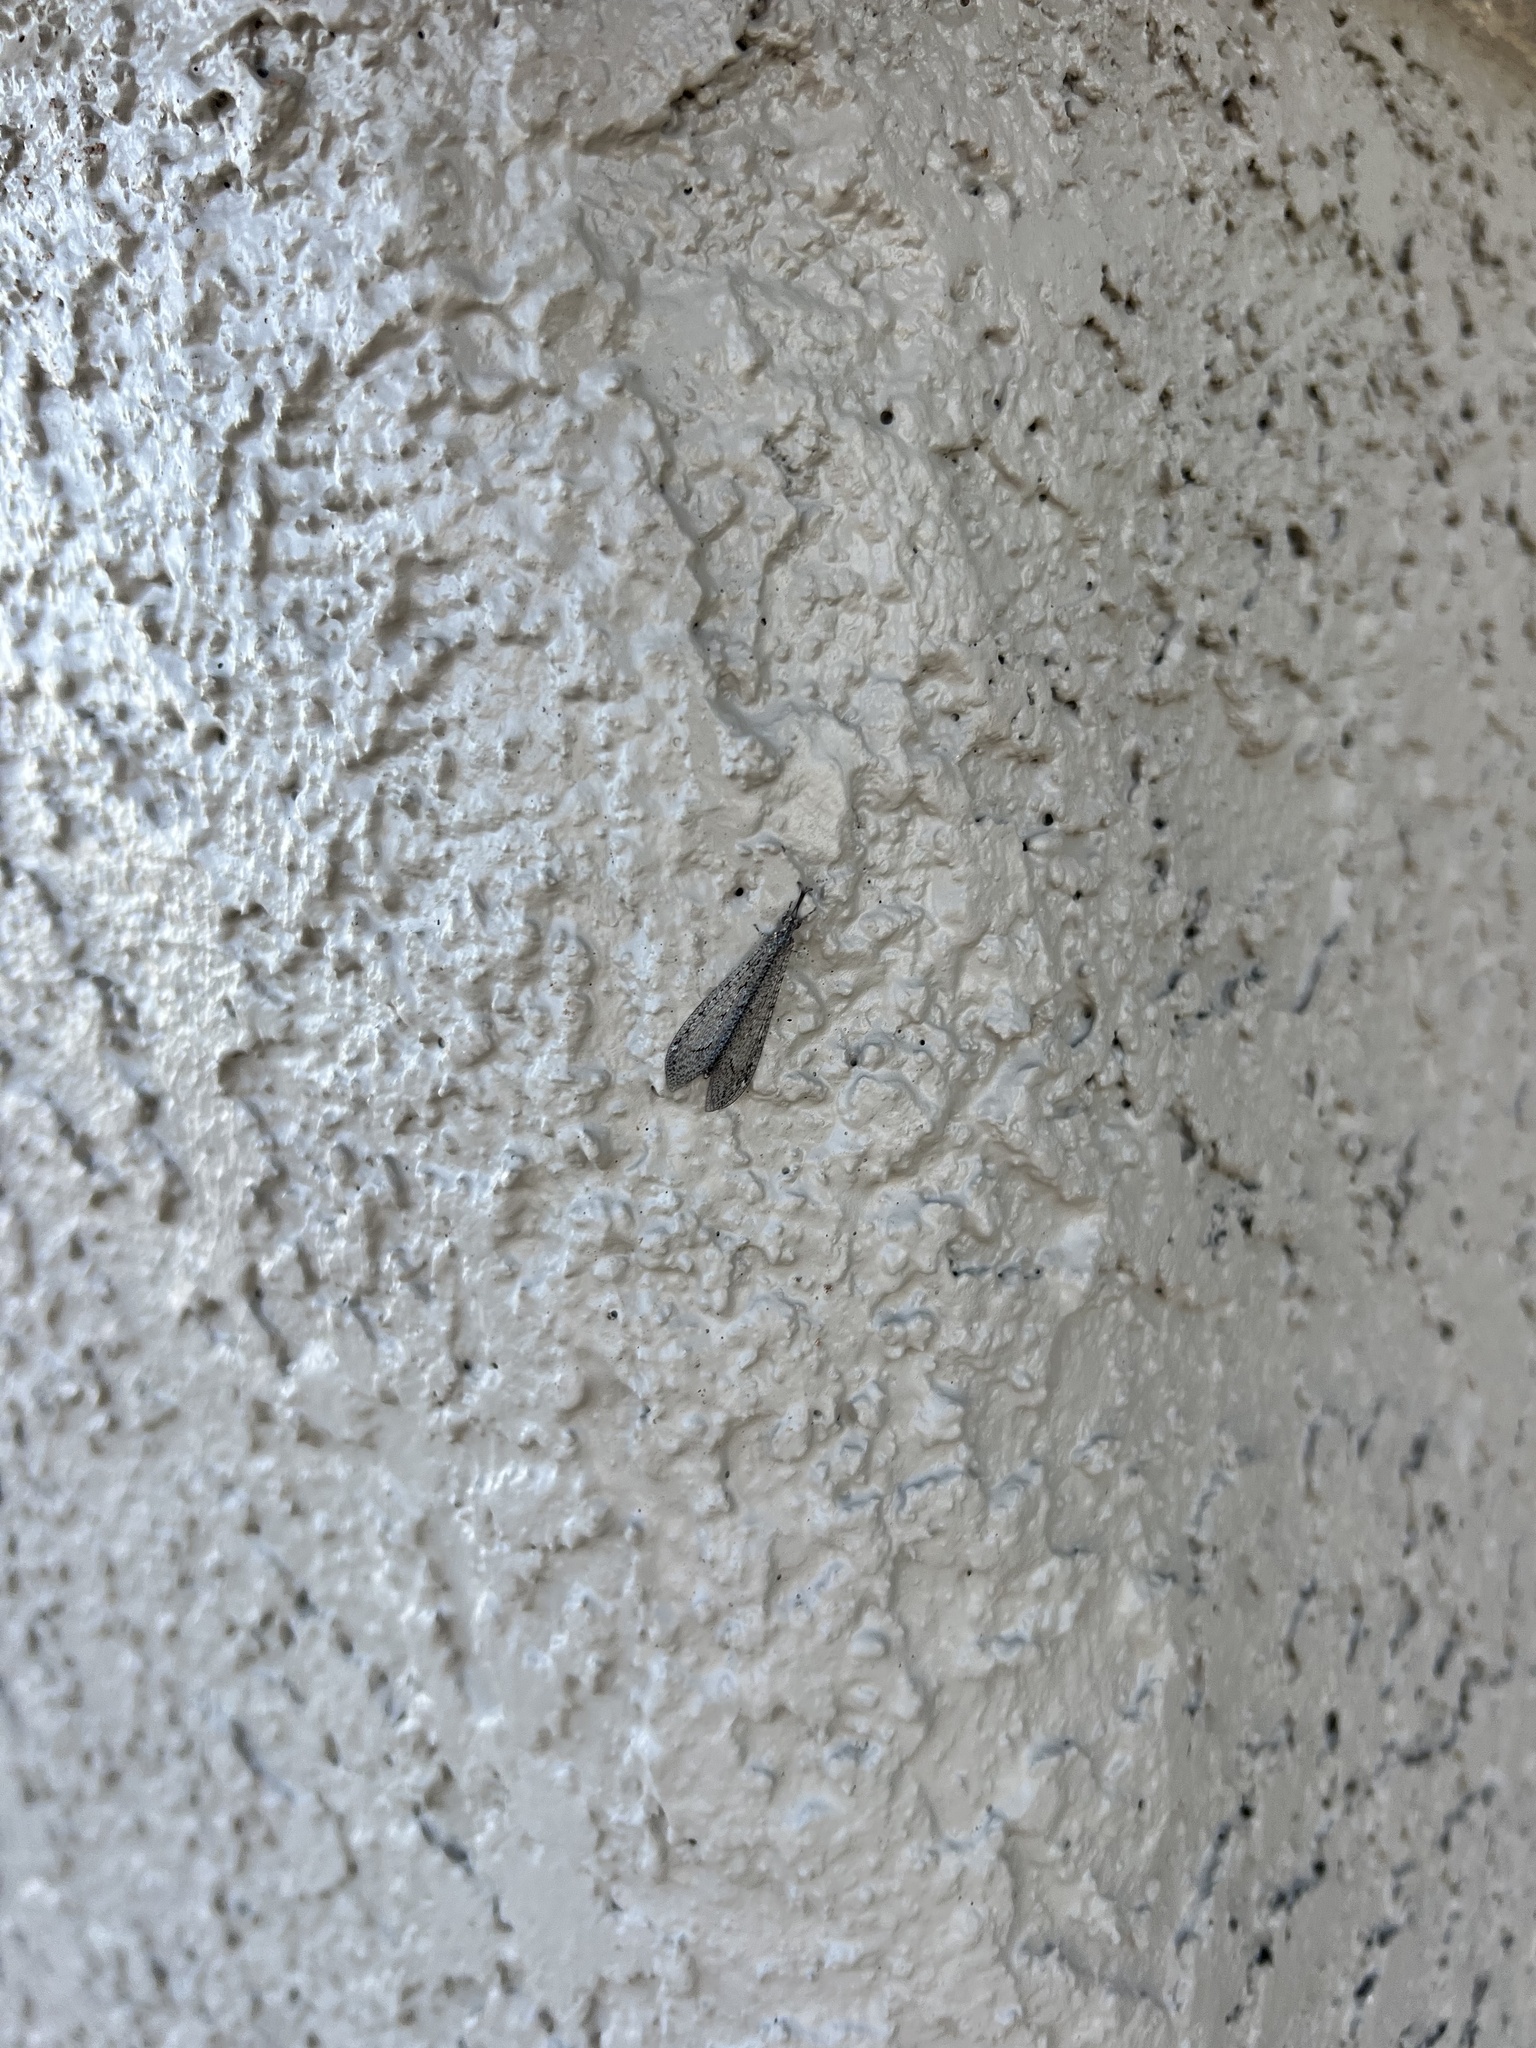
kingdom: Animalia
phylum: Arthropoda
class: Insecta
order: Neuroptera
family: Myrmeleontidae
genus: Atricholeon
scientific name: Atricholeon tuberculatus
